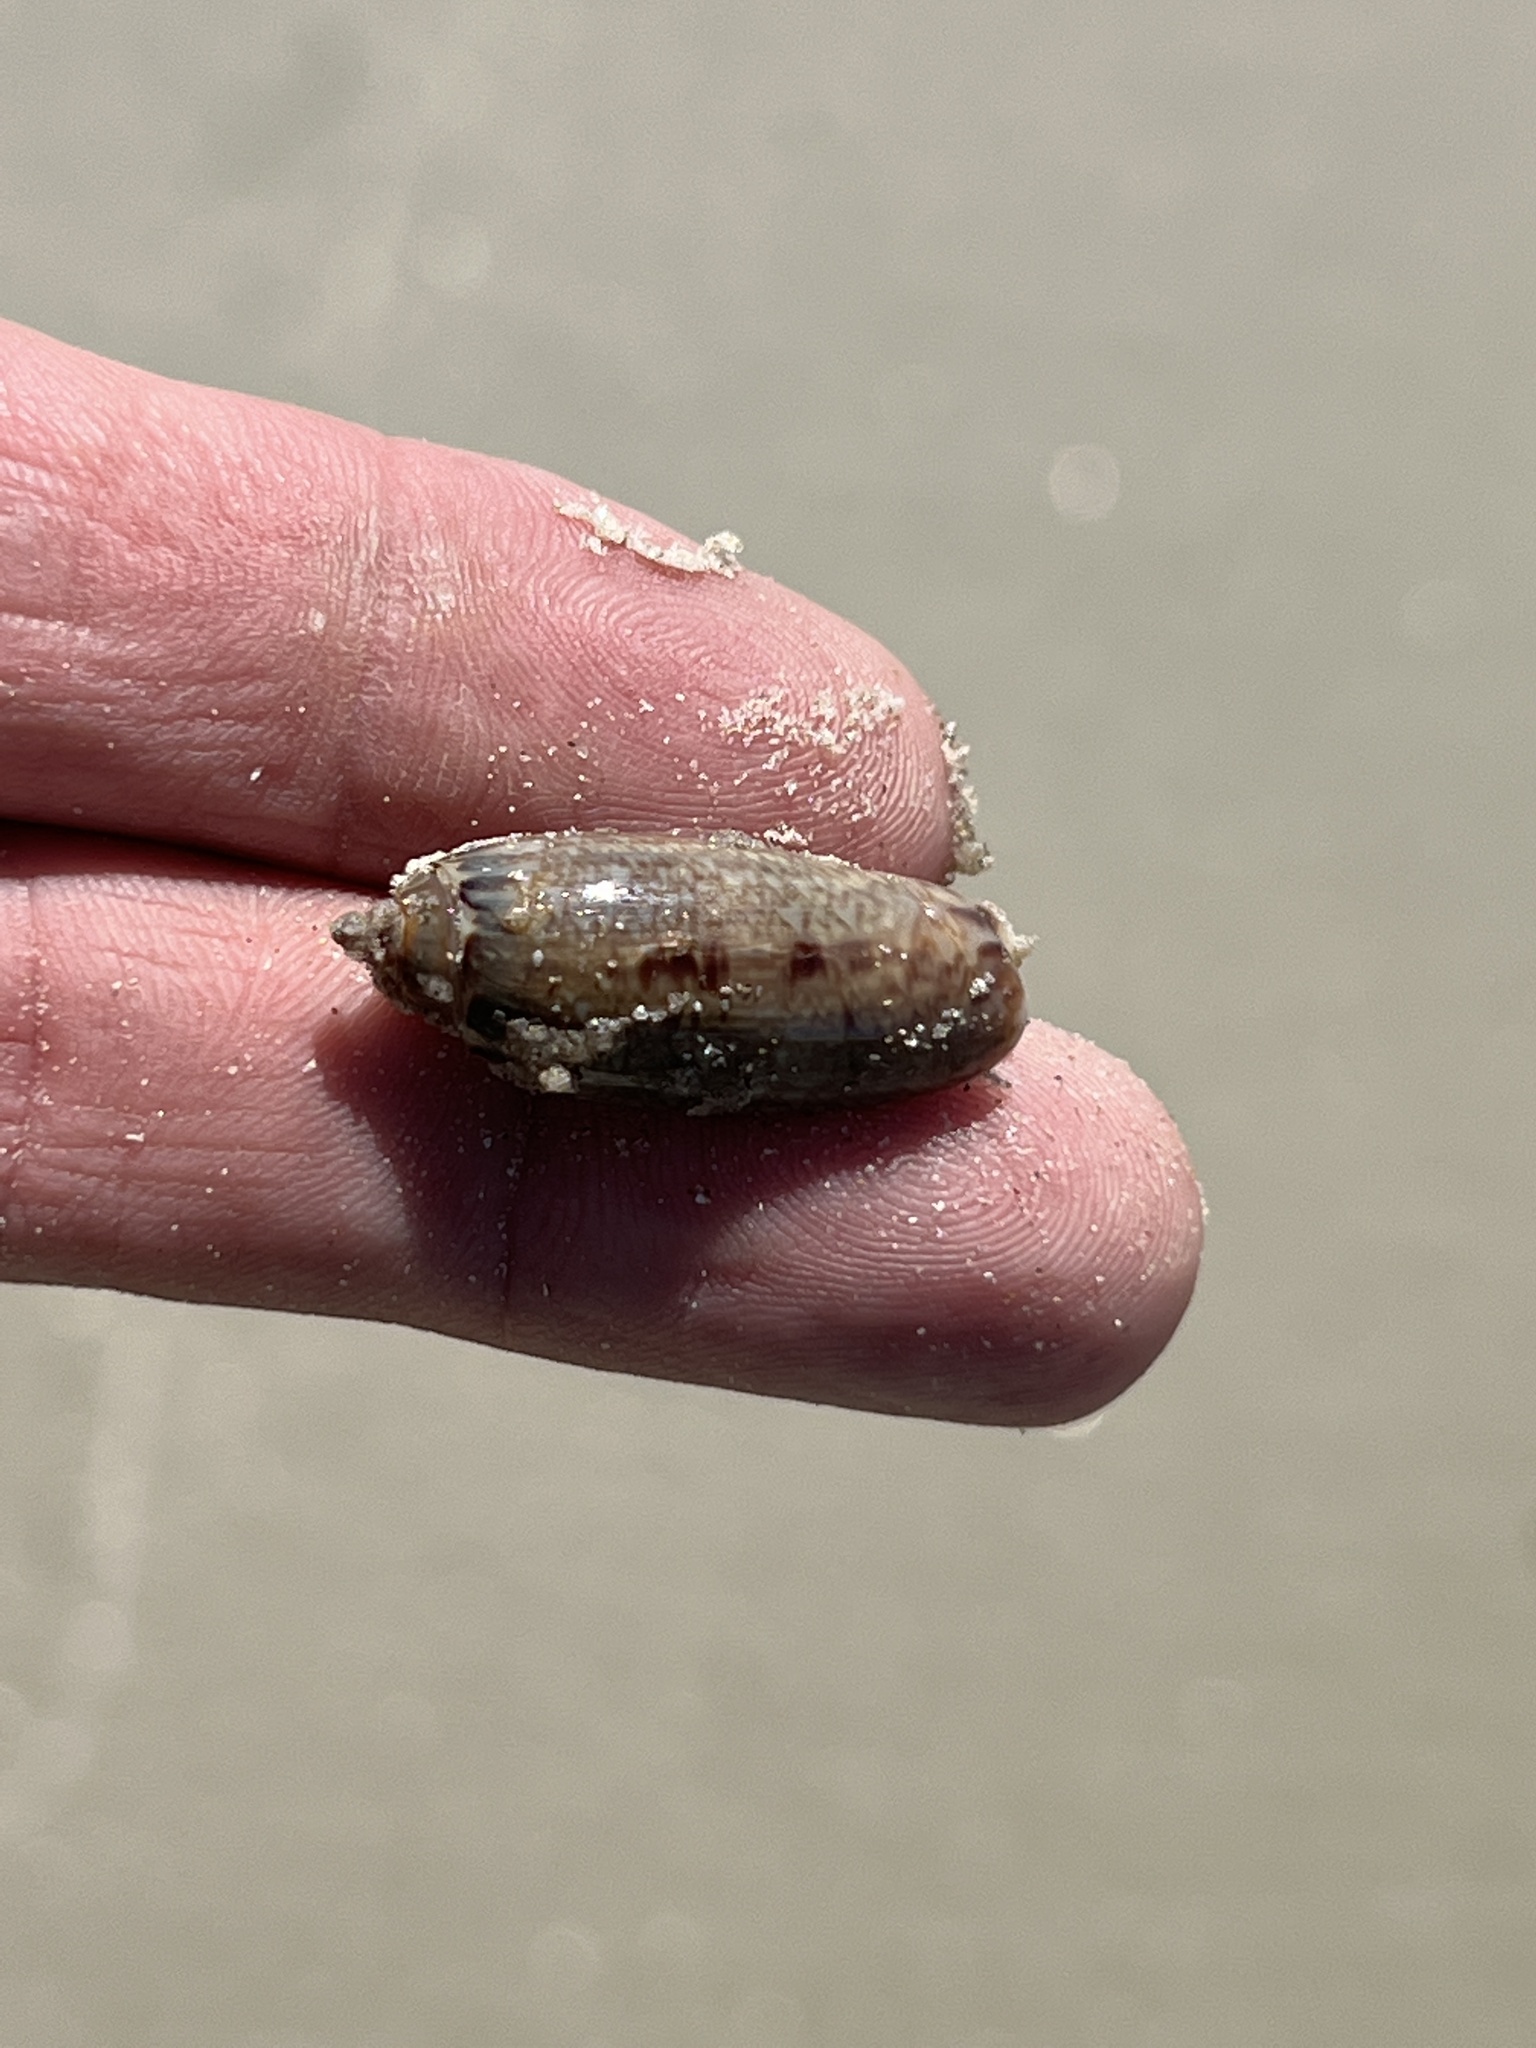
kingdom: Animalia
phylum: Mollusca
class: Gastropoda
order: Neogastropoda
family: Olividae
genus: Oliva
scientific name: Oliva sayana
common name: Lettered olive
